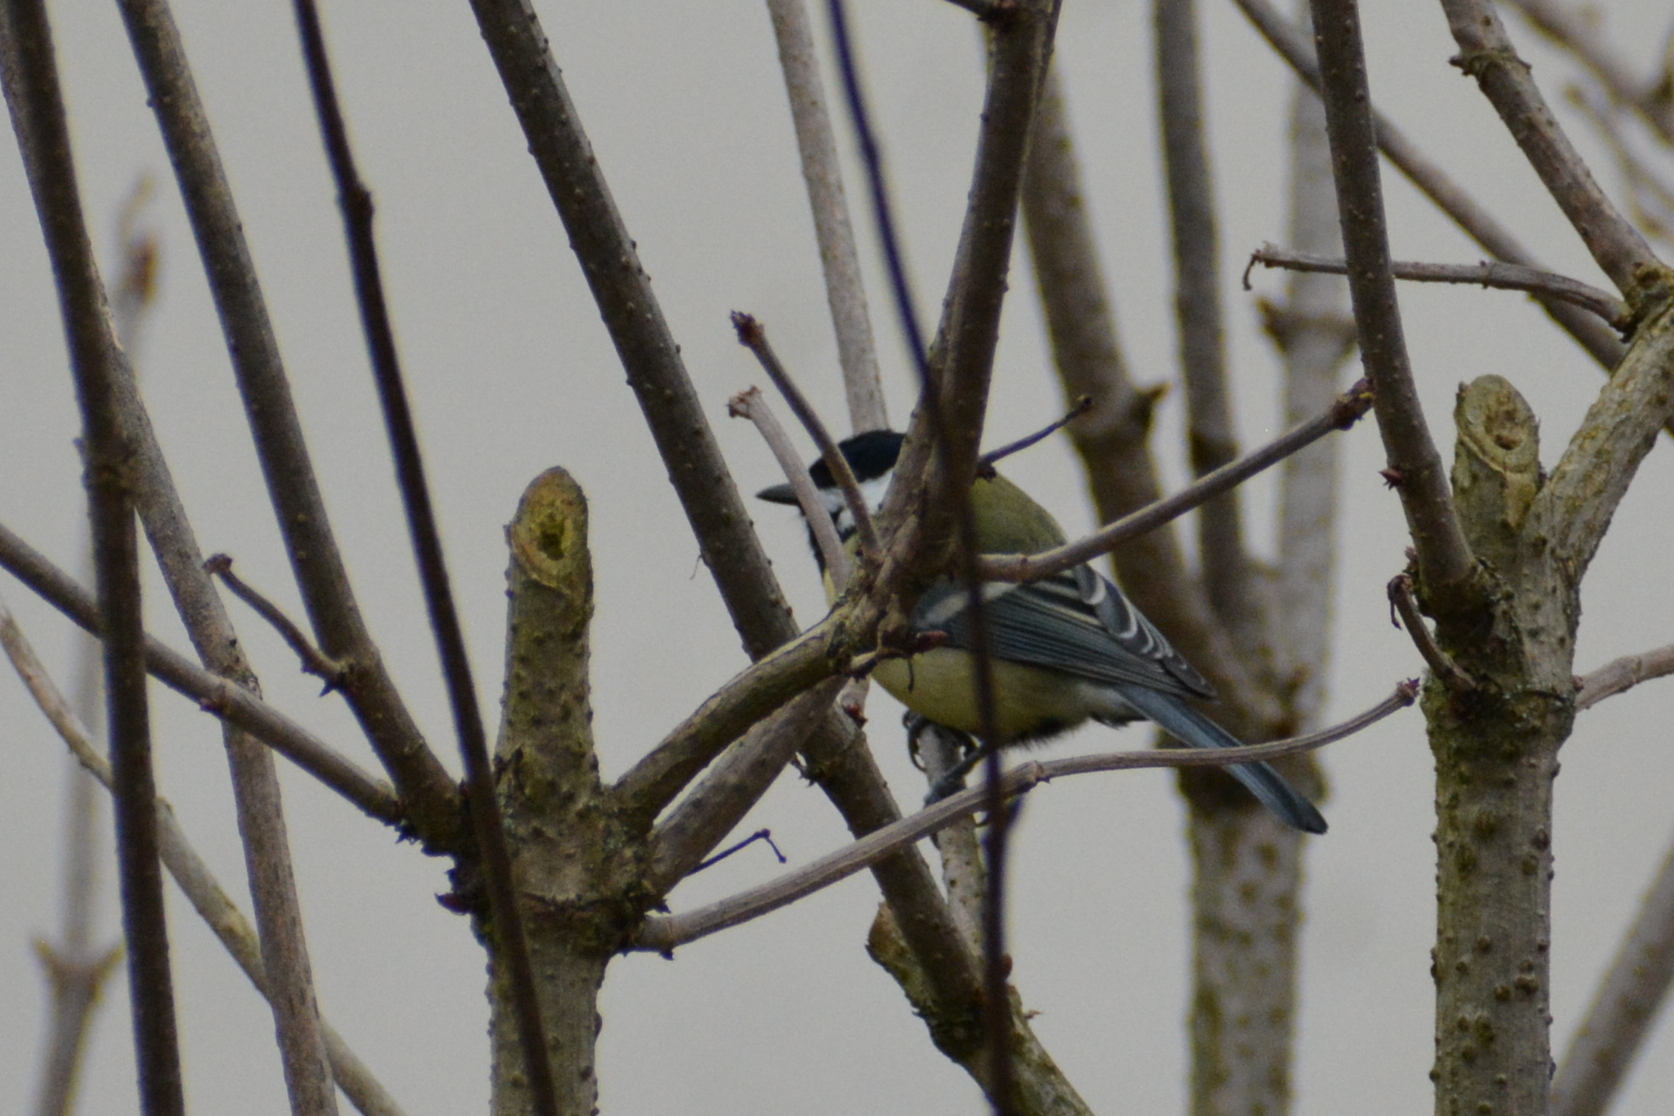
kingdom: Animalia
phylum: Chordata
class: Aves
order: Passeriformes
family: Paridae
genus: Parus
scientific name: Parus major
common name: Great tit
